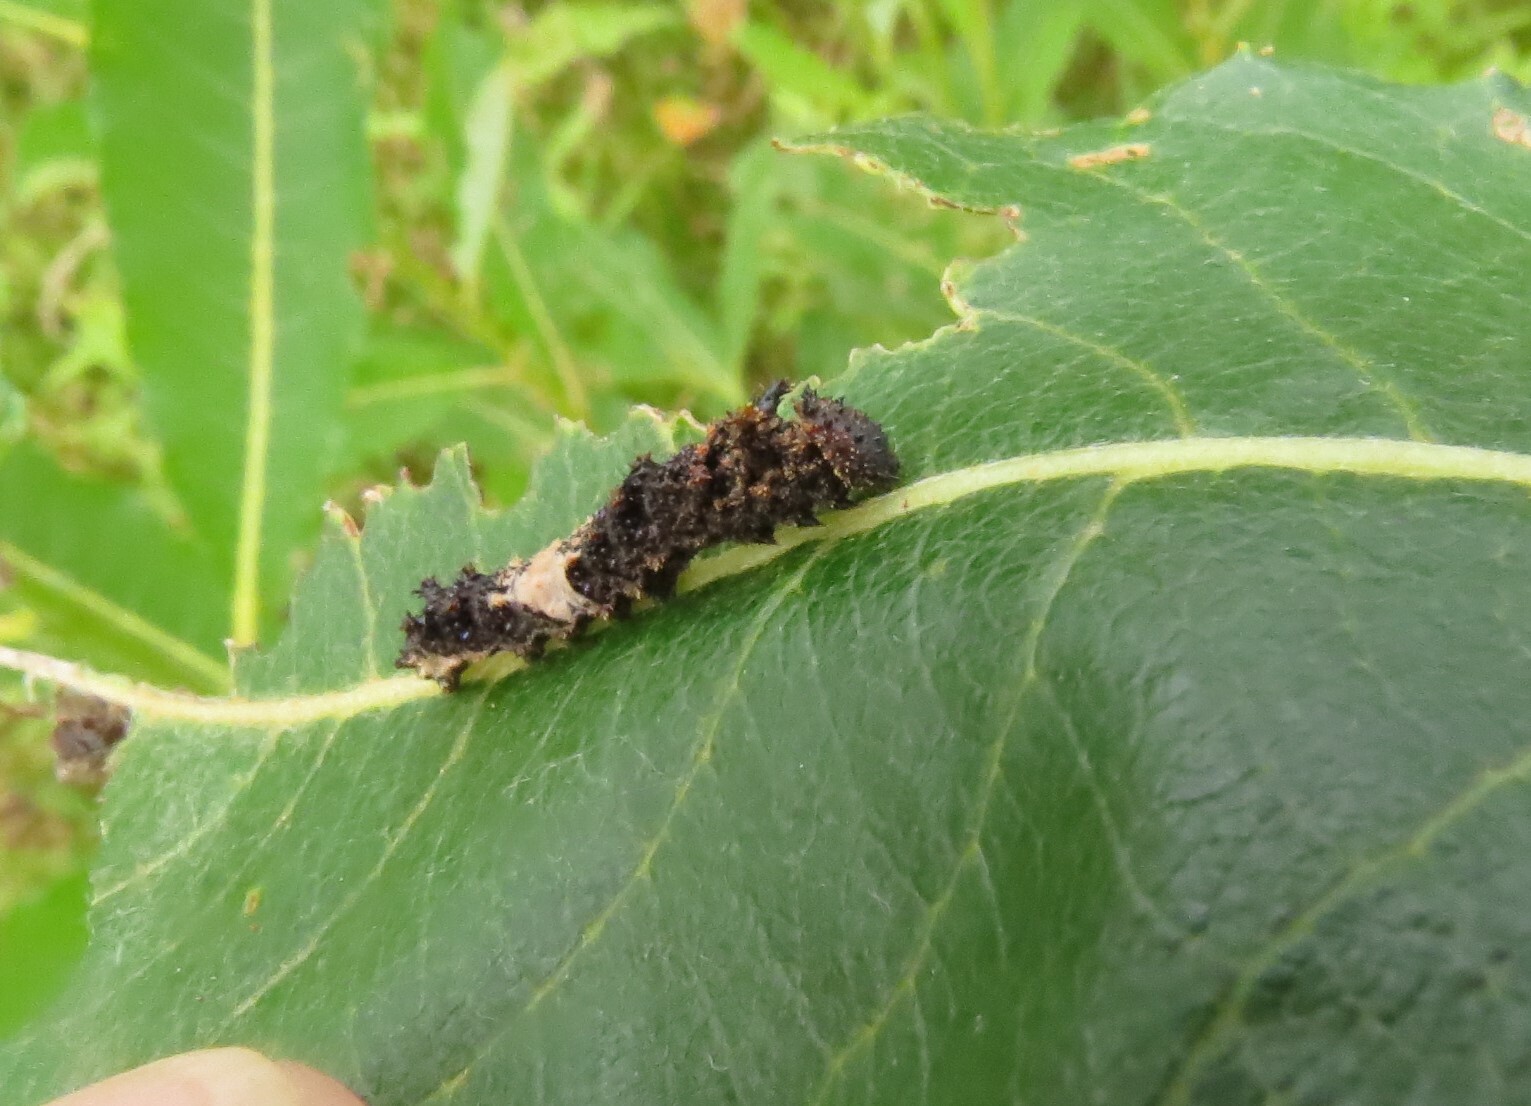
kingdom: Animalia
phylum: Arthropoda
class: Insecta
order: Lepidoptera
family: Nymphalidae
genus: Limenitis
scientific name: Limenitis archippus
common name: Viceroy
